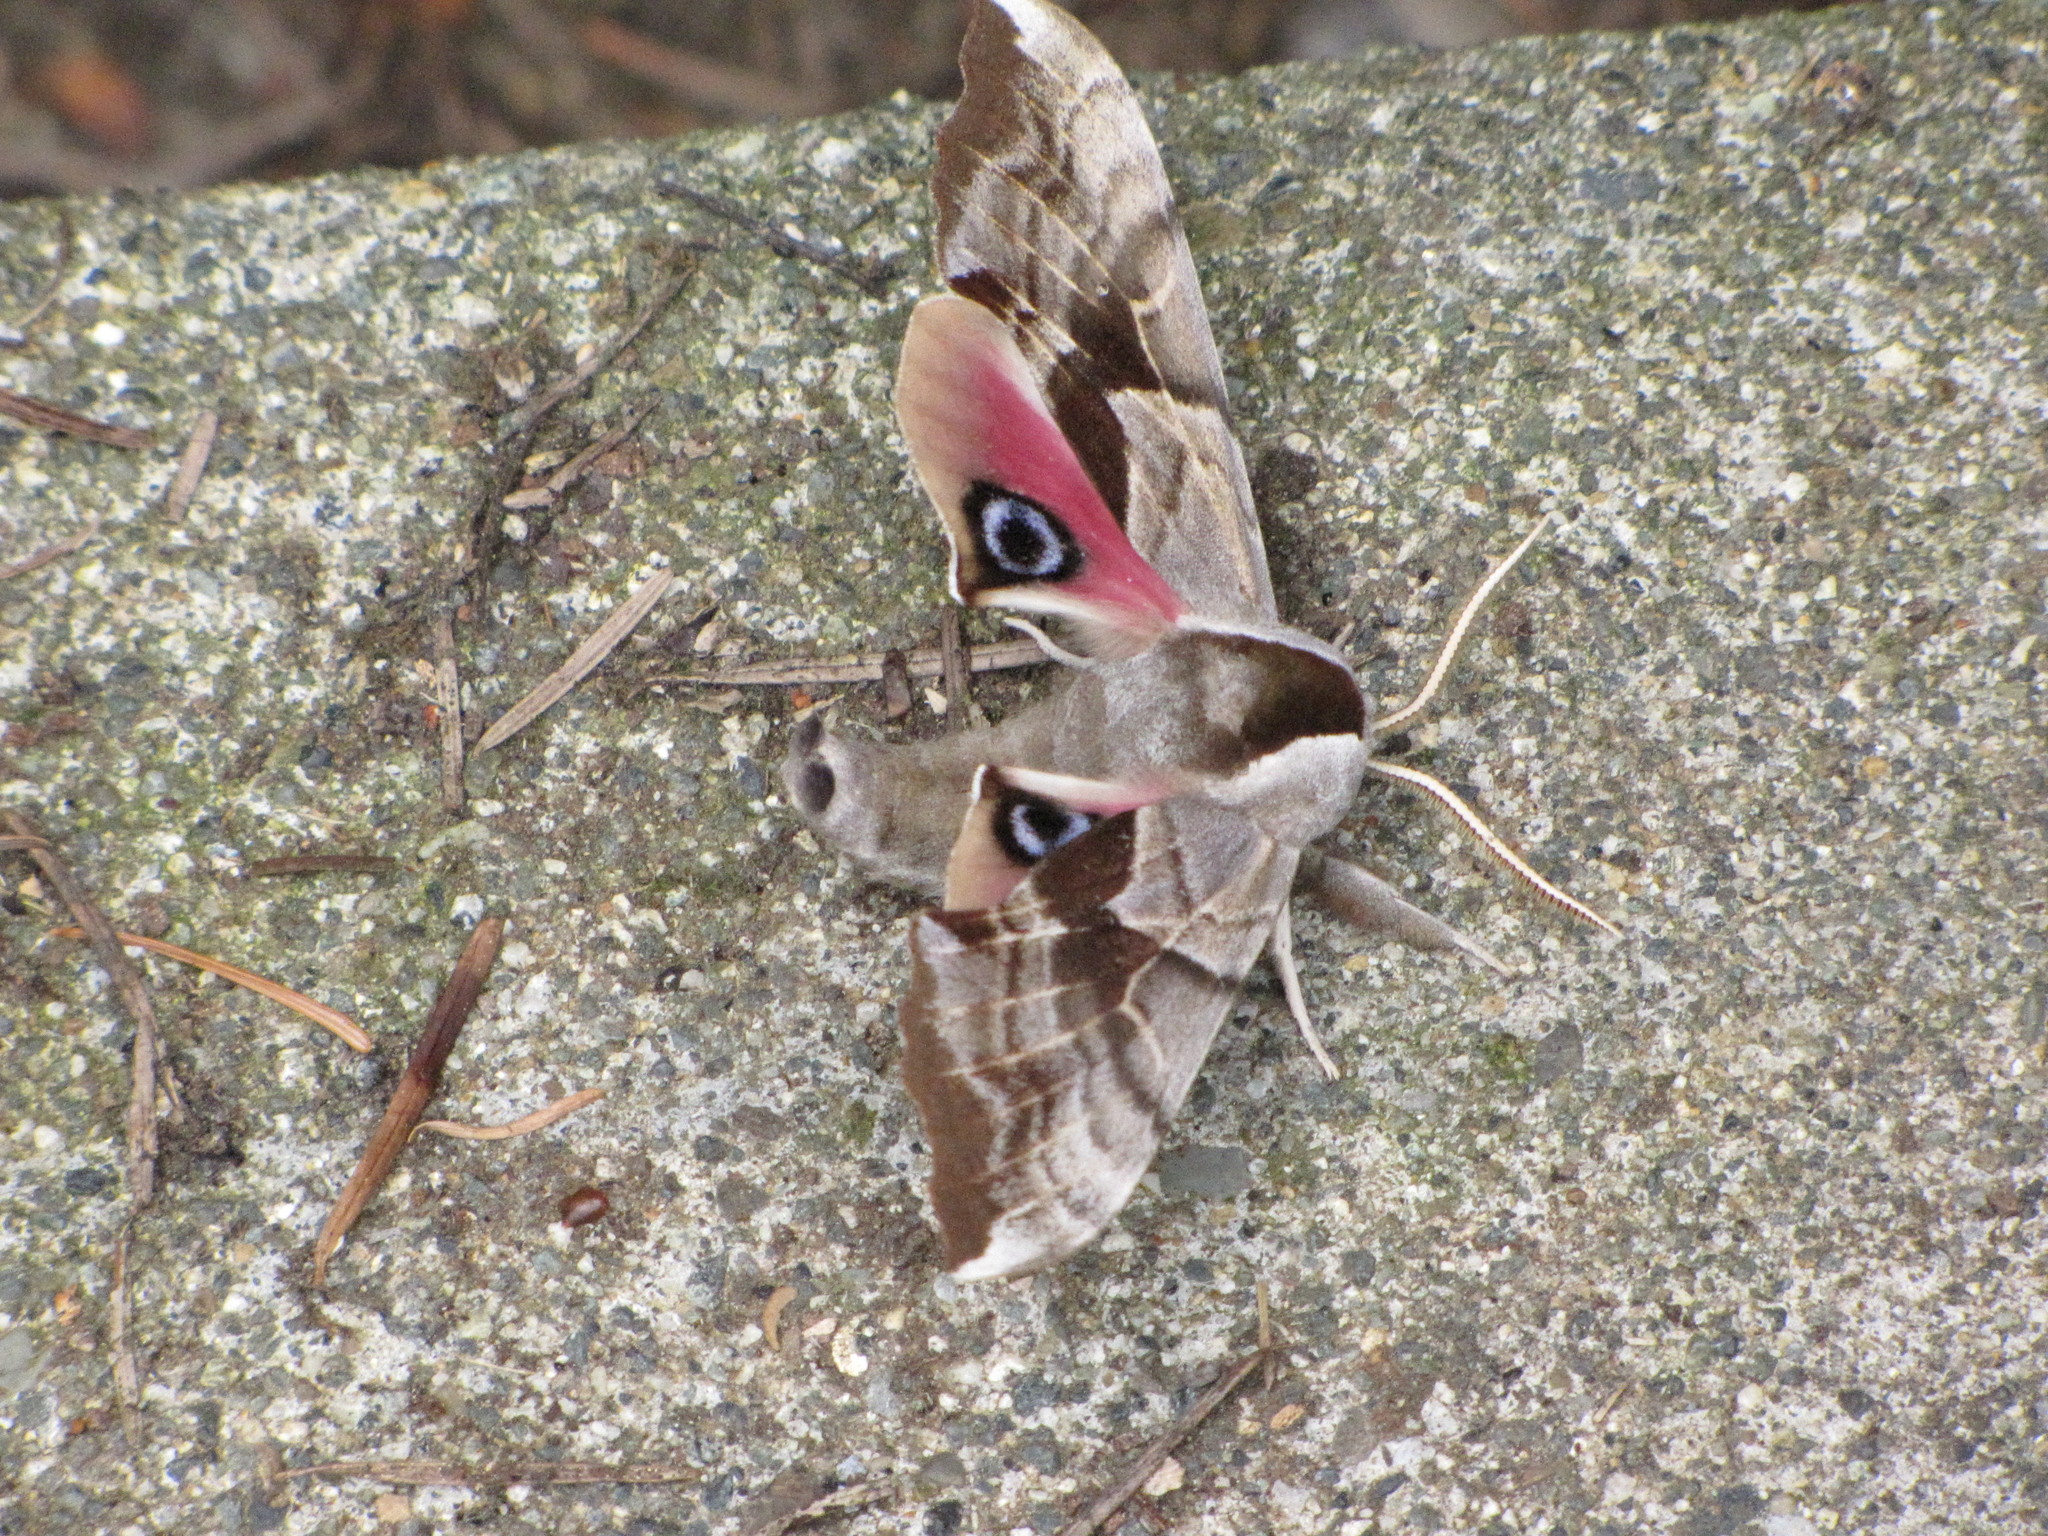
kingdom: Animalia
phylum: Arthropoda
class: Insecta
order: Lepidoptera
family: Sphingidae
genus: Smerinthus
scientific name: Smerinthus cerisyi
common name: Cerisy's sphinx moth
